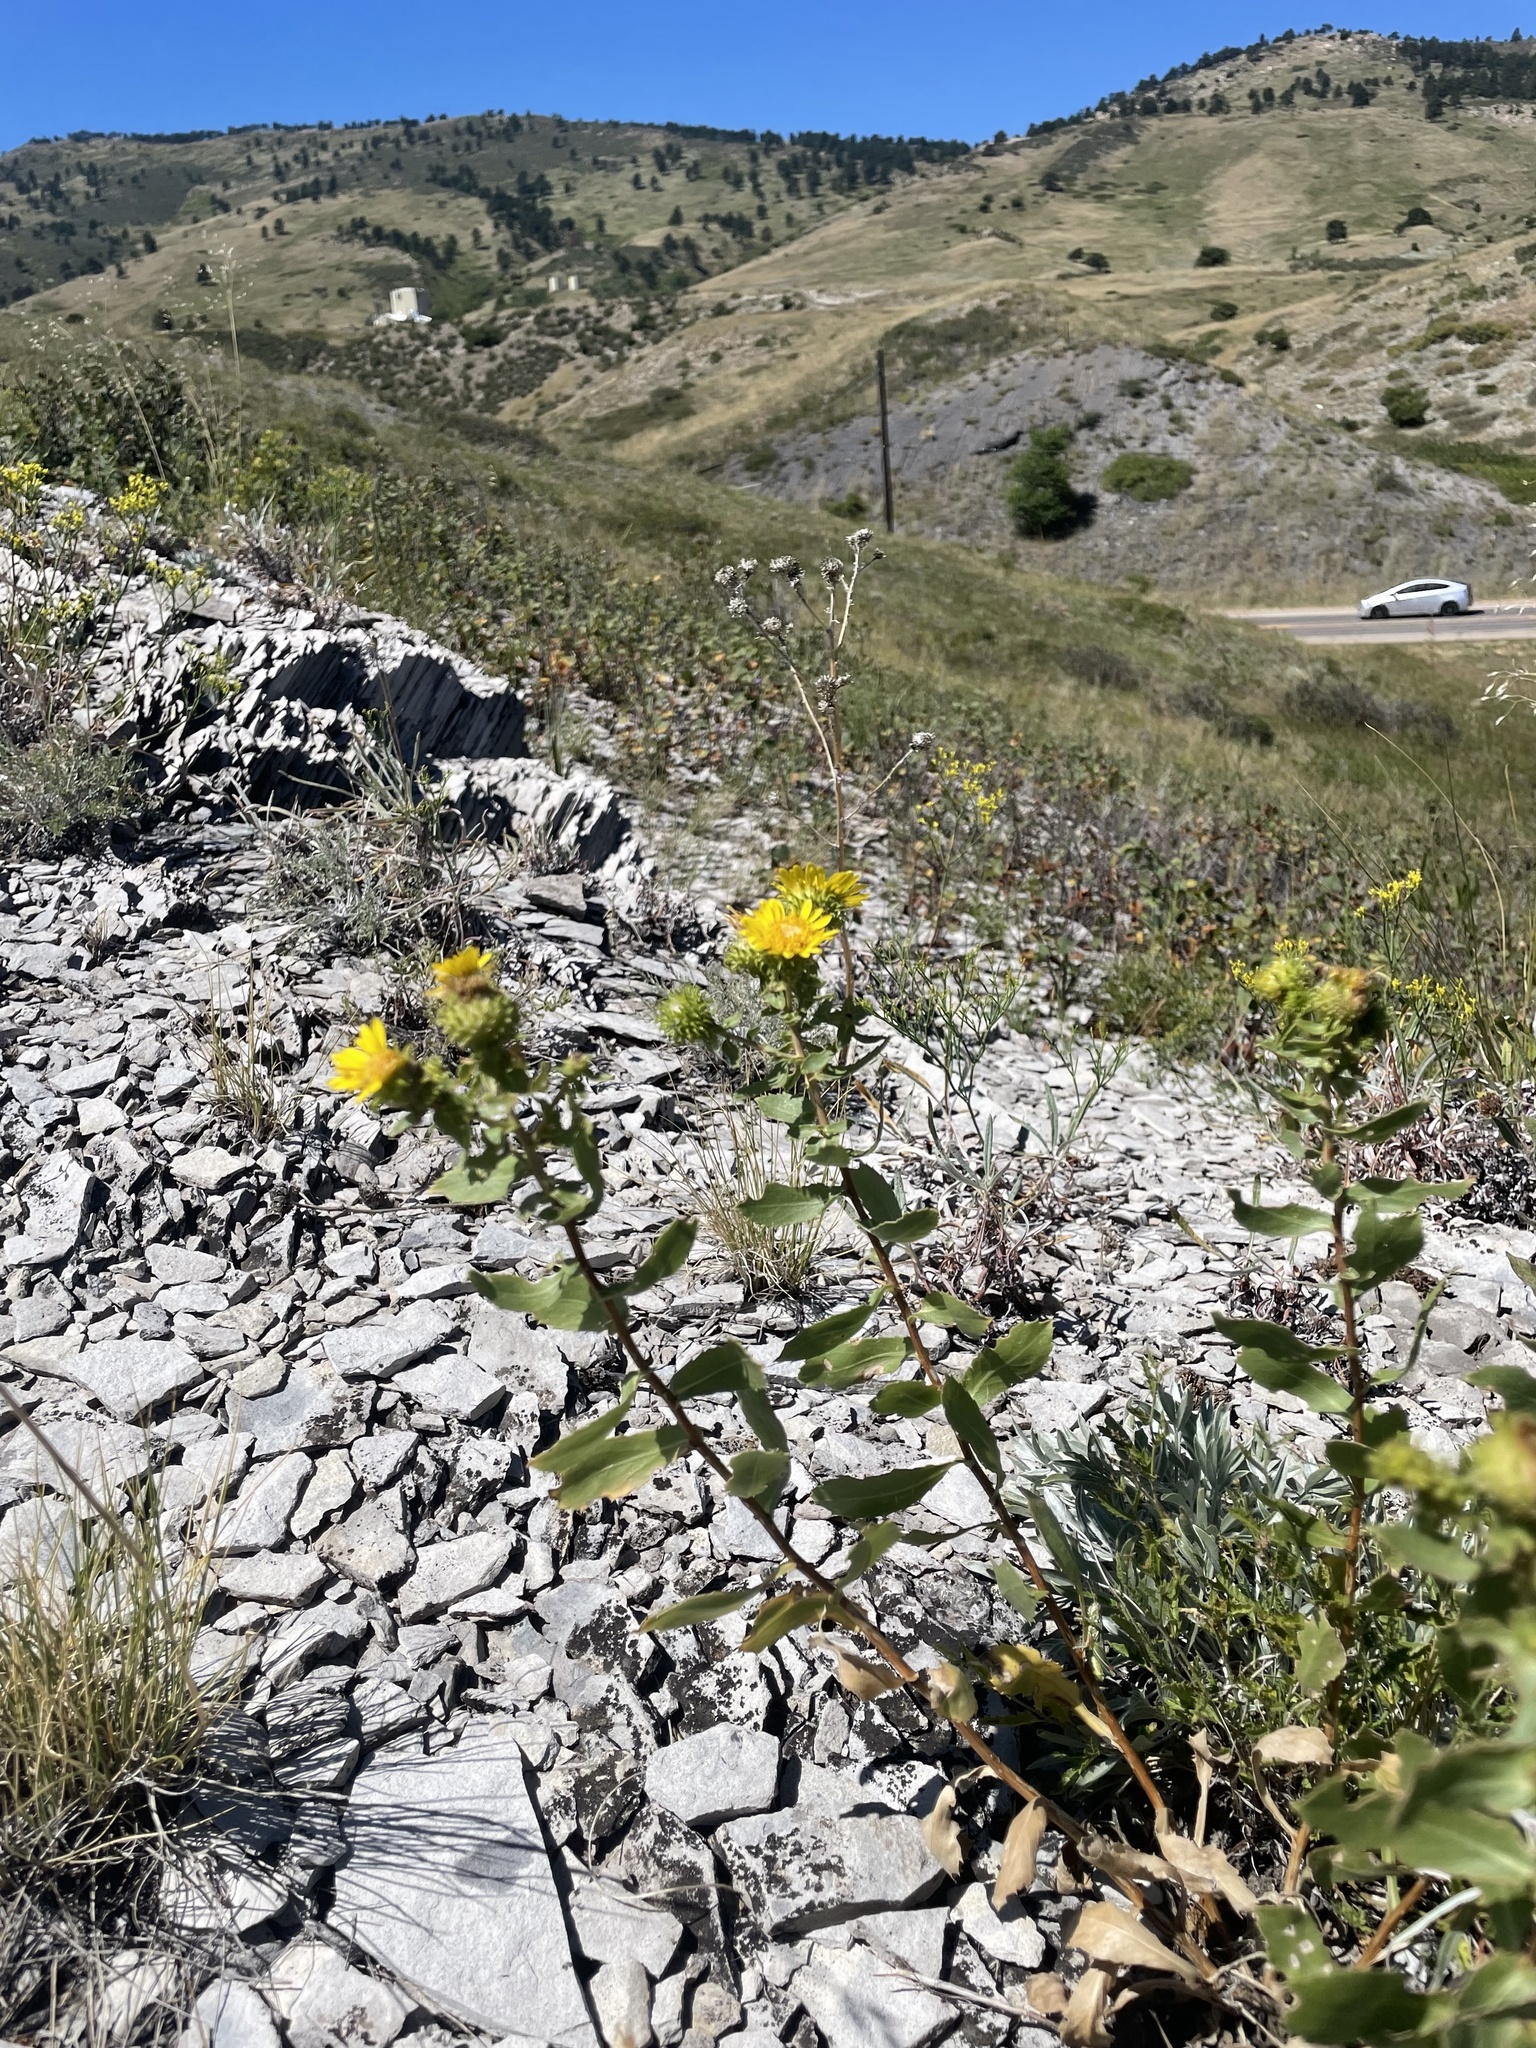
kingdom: Plantae
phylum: Tracheophyta
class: Magnoliopsida
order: Asterales
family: Asteraceae
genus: Grindelia
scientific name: Grindelia subalpina
